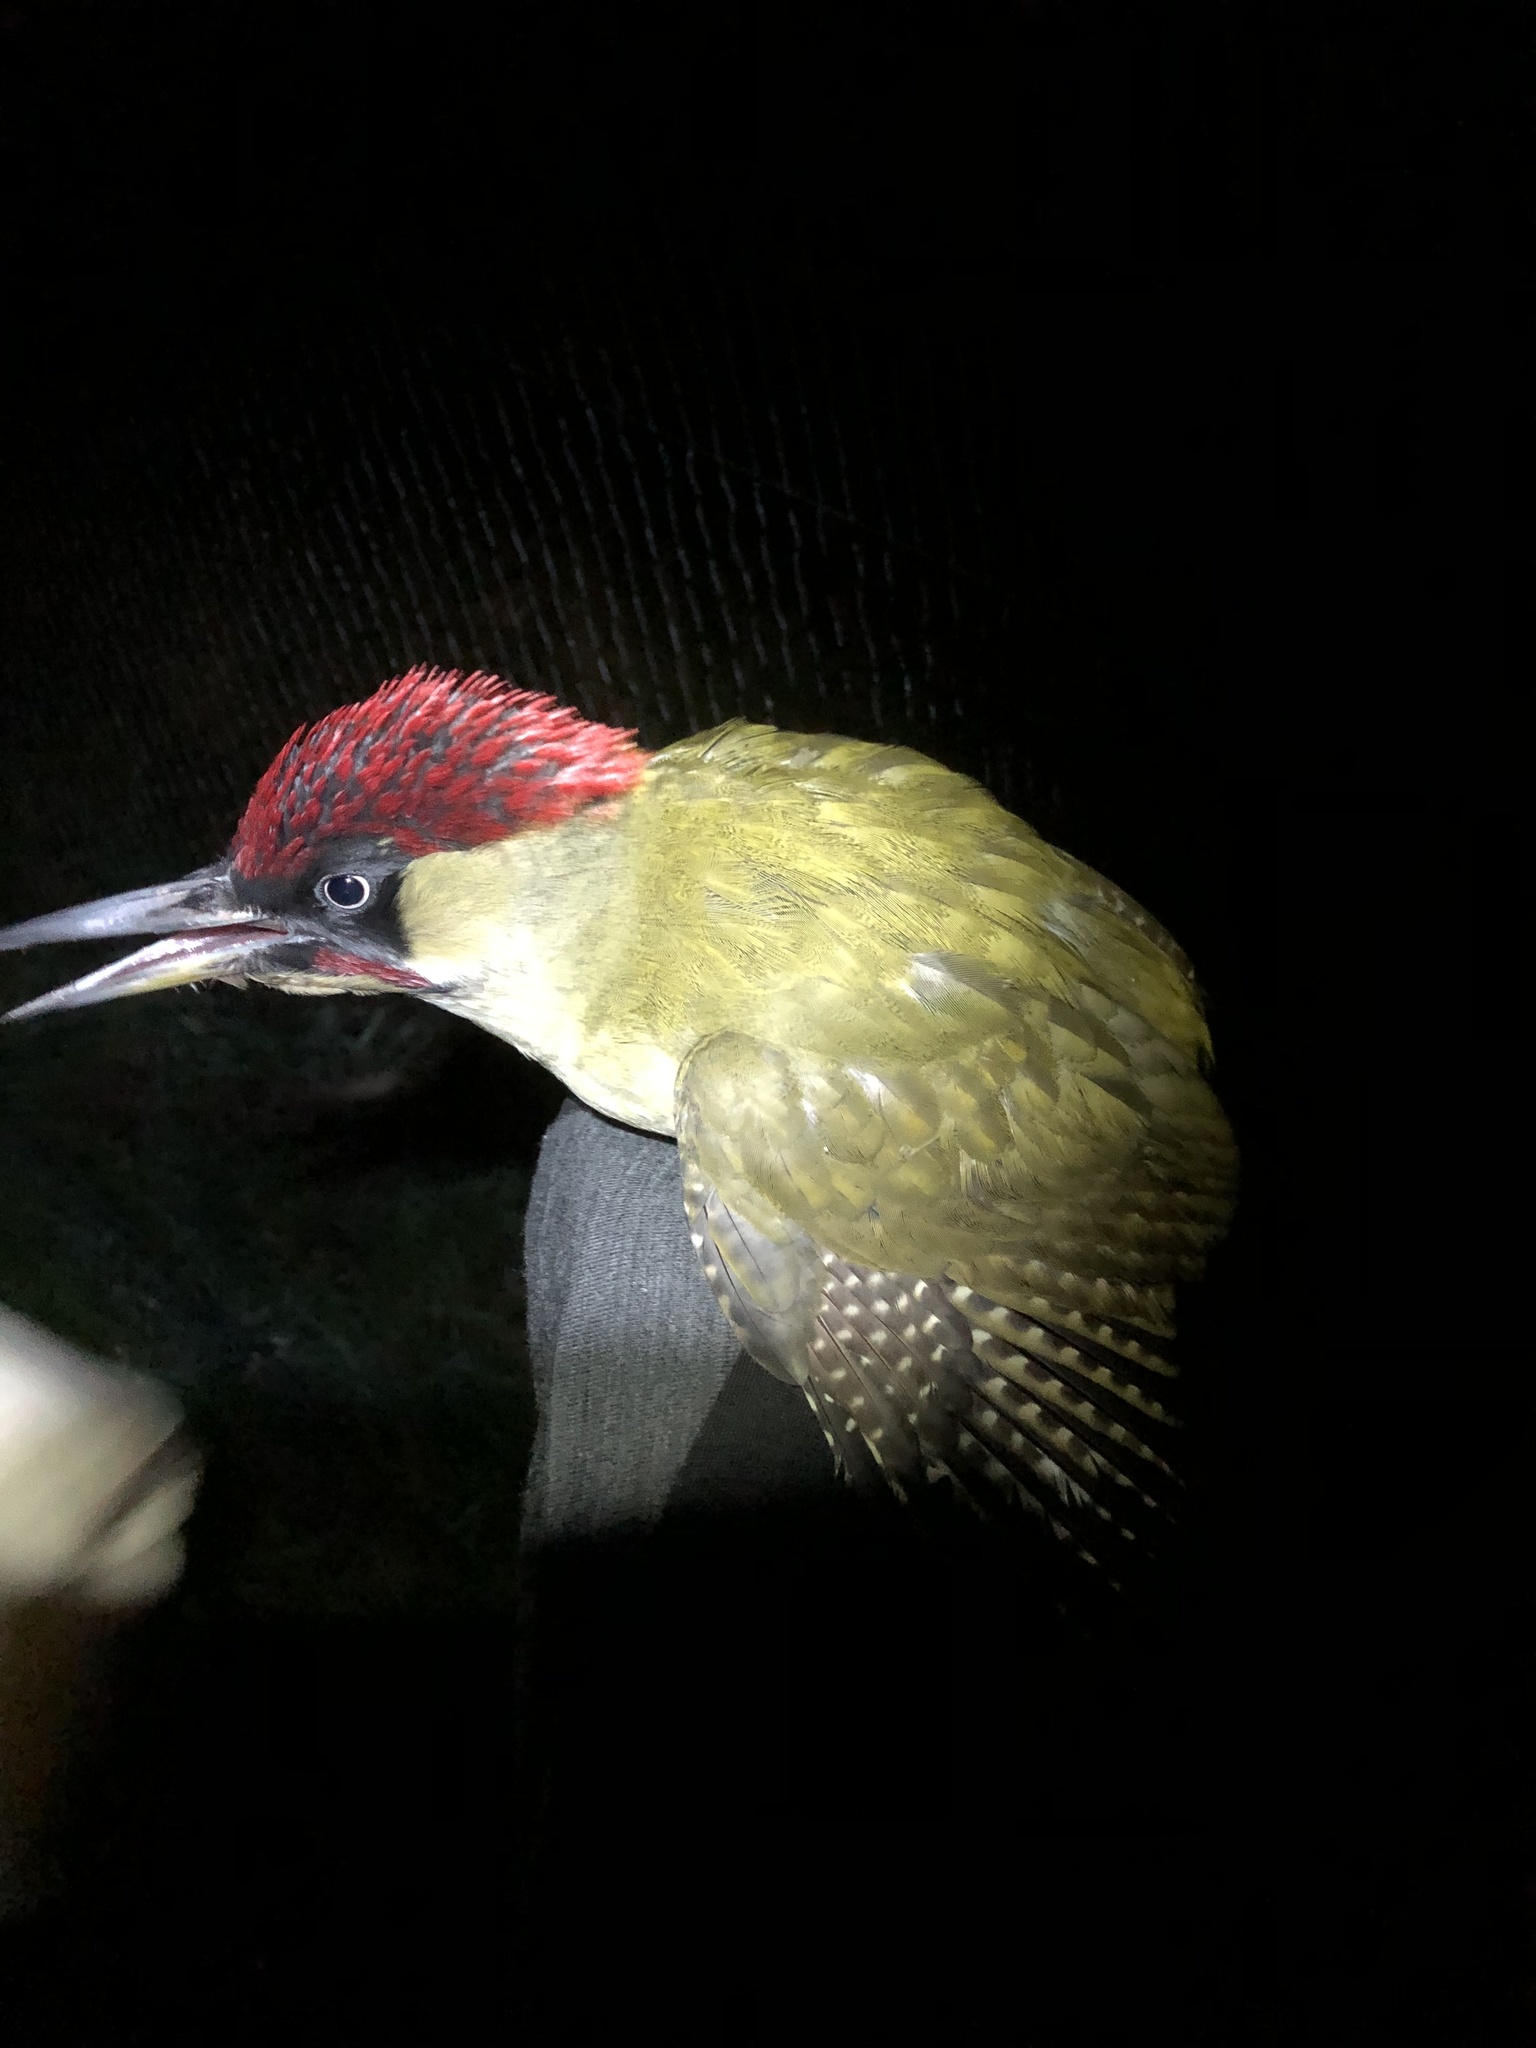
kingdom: Animalia
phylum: Chordata
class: Aves
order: Piciformes
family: Picidae
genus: Picus
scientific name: Picus viridis
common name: European green woodpecker
